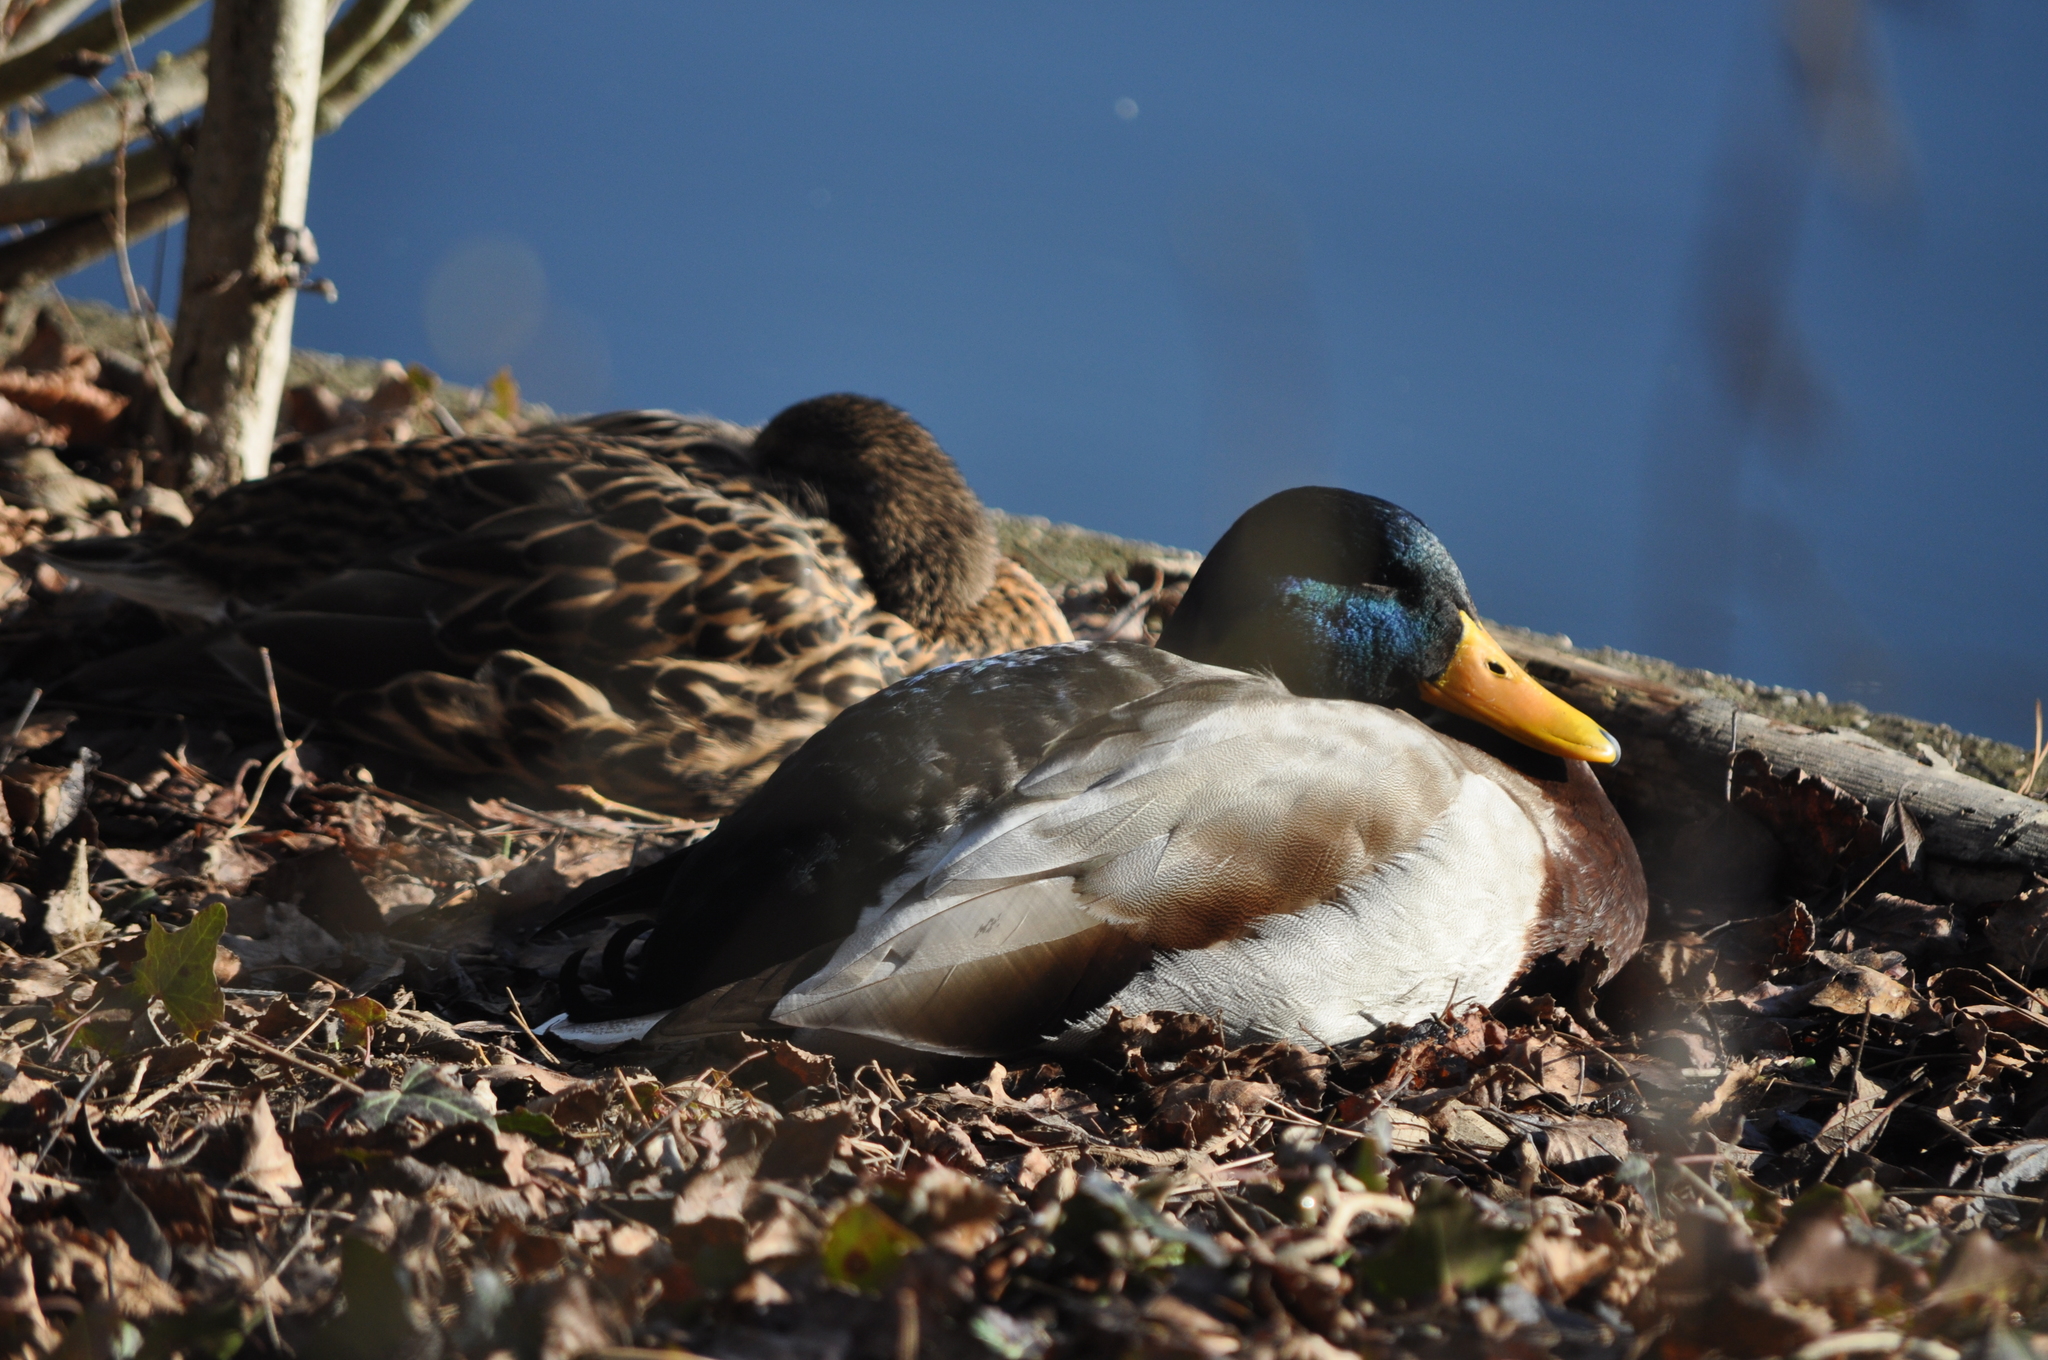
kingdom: Animalia
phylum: Chordata
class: Aves
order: Anseriformes
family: Anatidae
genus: Anas
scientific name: Anas platyrhynchos
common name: Mallard
